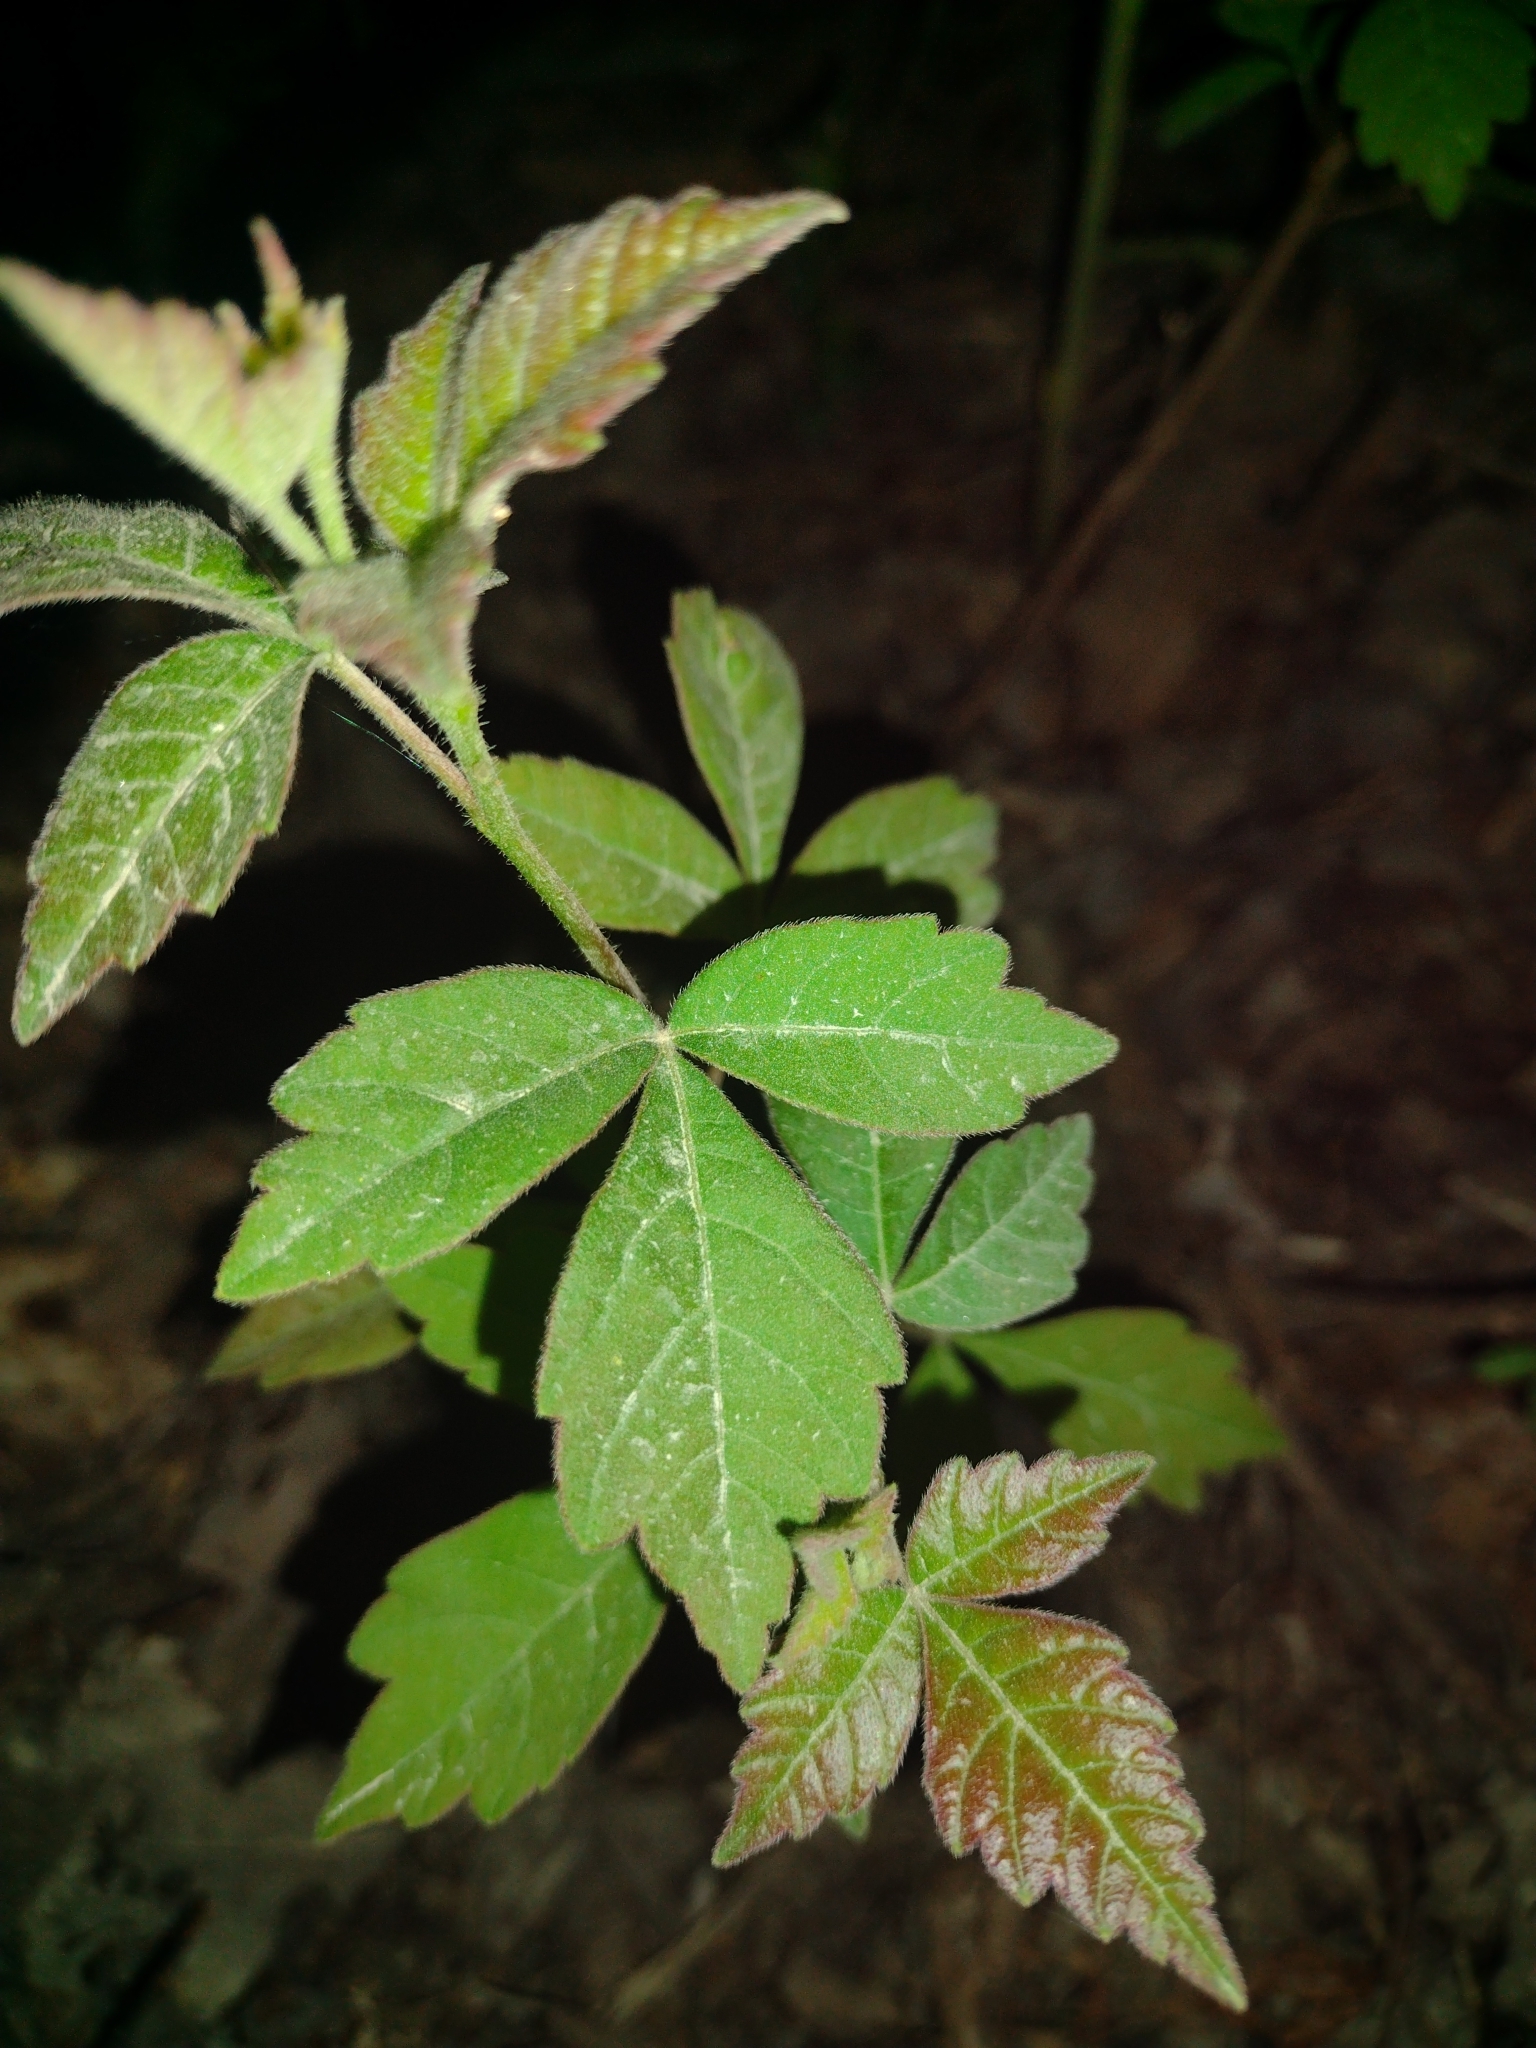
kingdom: Plantae
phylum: Tracheophyta
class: Magnoliopsida
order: Sapindales
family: Anacardiaceae
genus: Rhus
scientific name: Rhus aromatica
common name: Aromatic sumac
